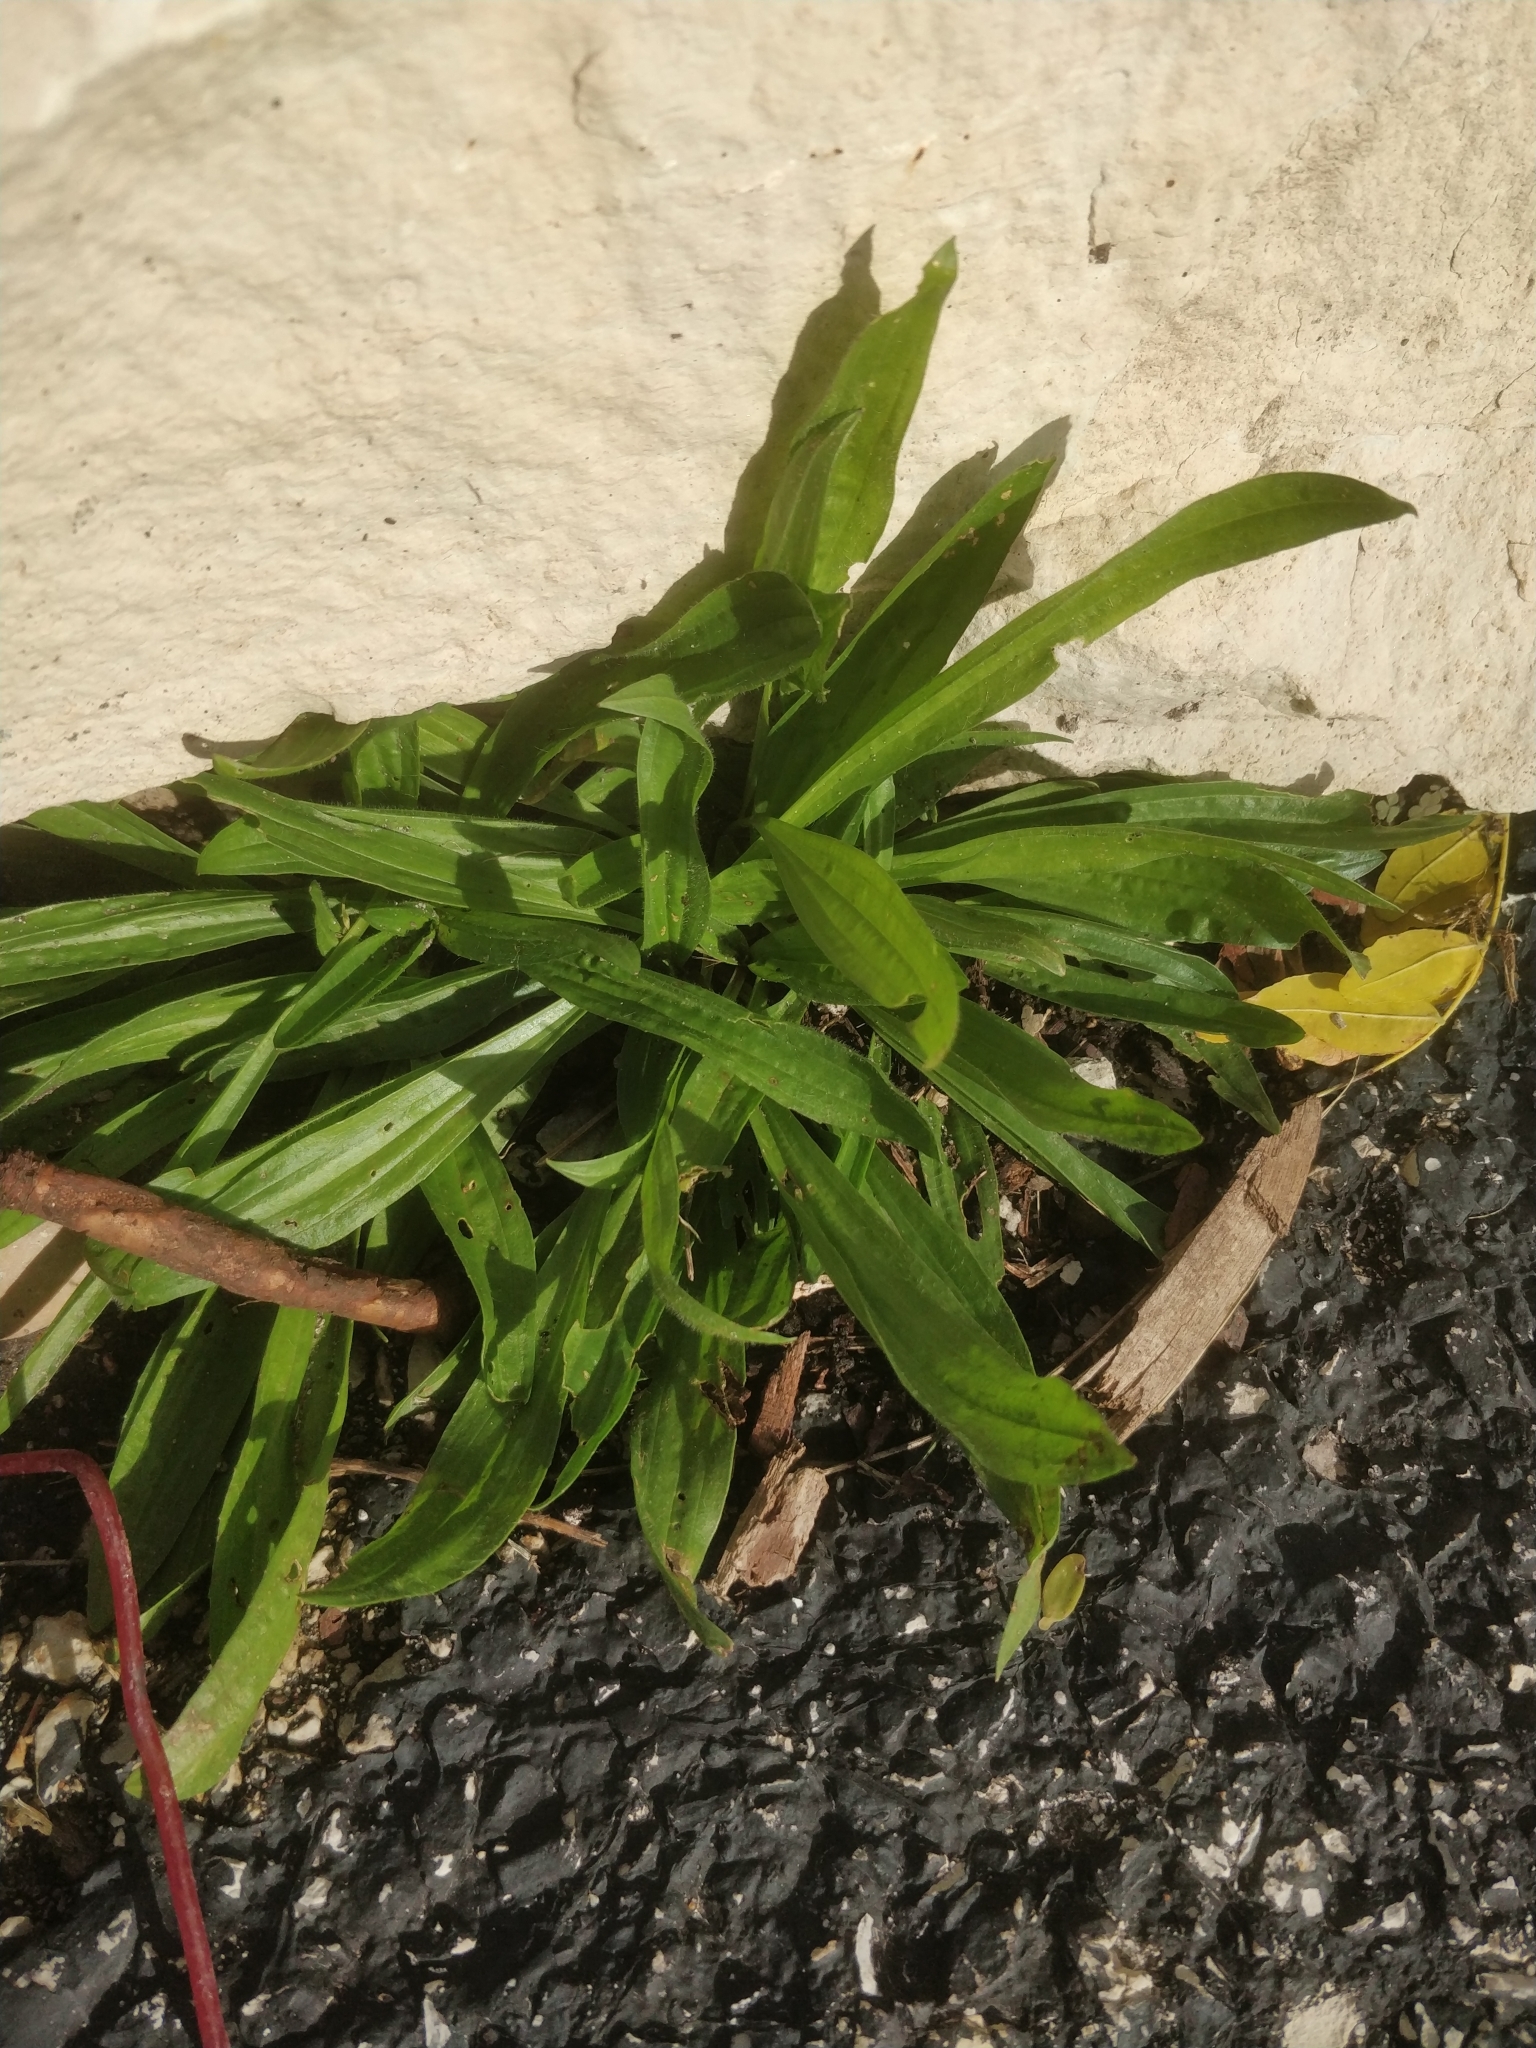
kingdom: Plantae
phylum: Tracheophyta
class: Magnoliopsida
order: Lamiales
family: Plantaginaceae
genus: Plantago
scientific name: Plantago lanceolata
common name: Ribwort plantain
